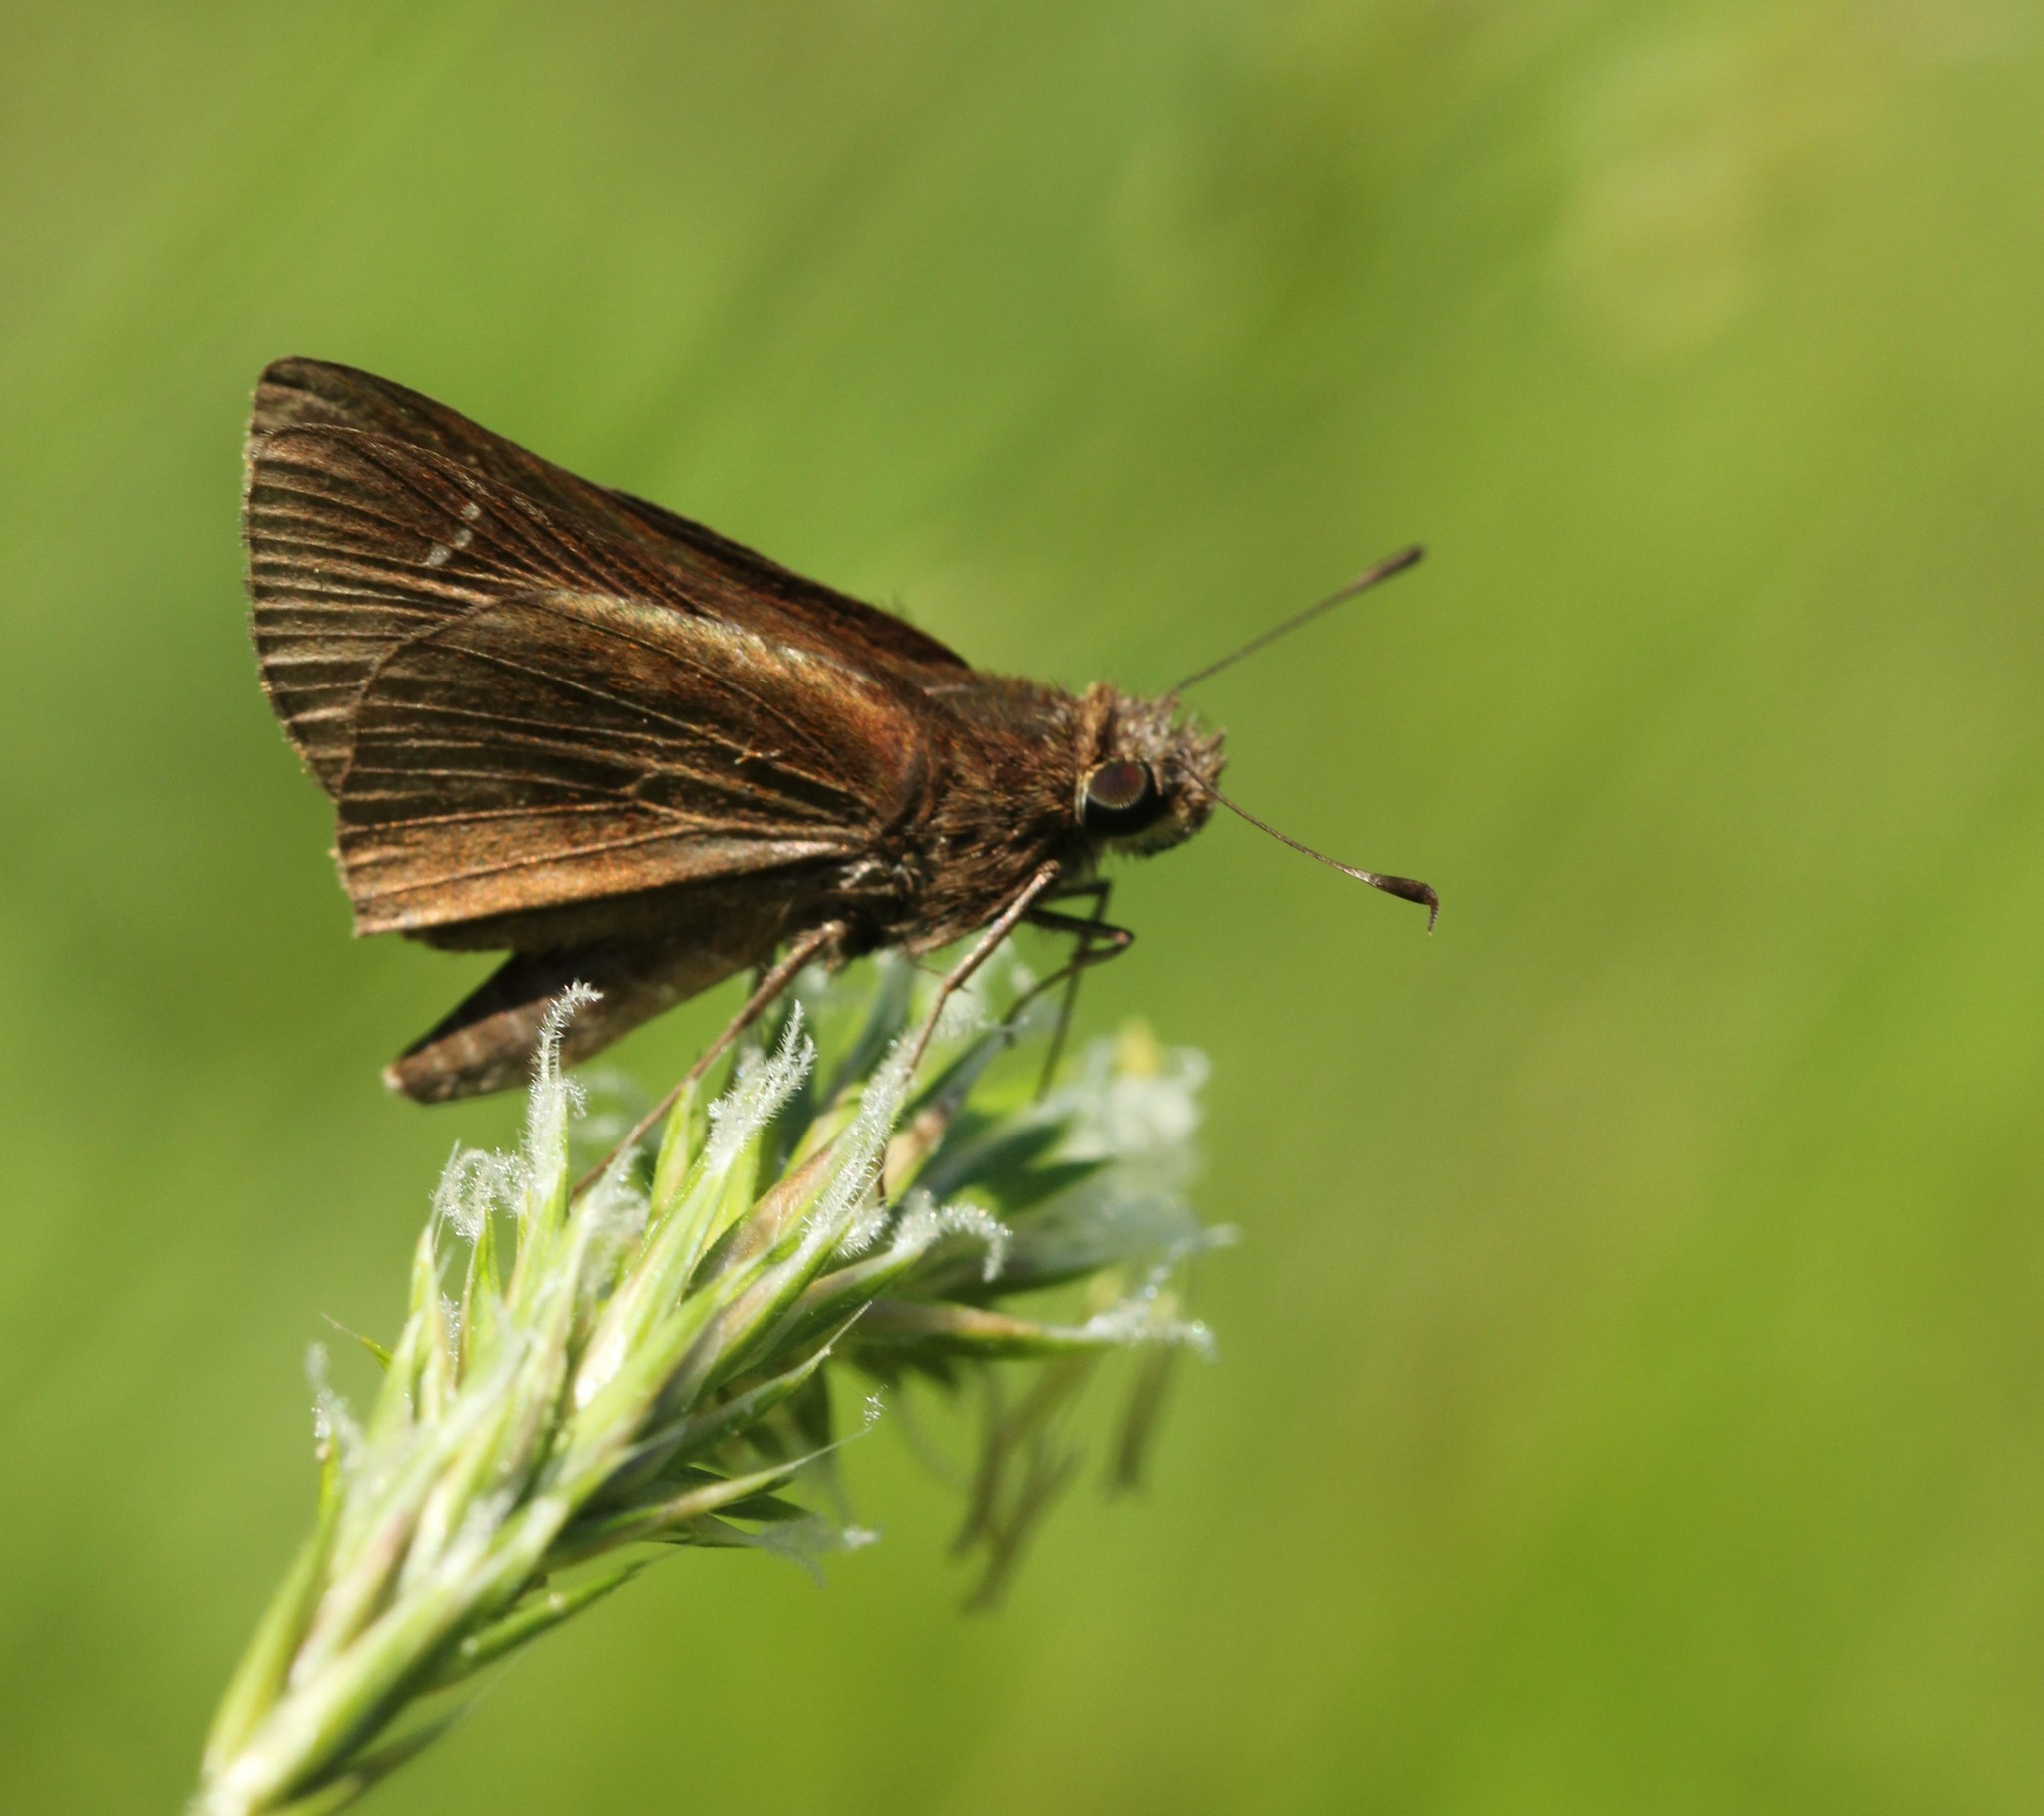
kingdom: Animalia
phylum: Arthropoda
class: Insecta
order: Lepidoptera
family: Hesperiidae
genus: Lerema
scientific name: Lerema accius
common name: Clouded skipper
